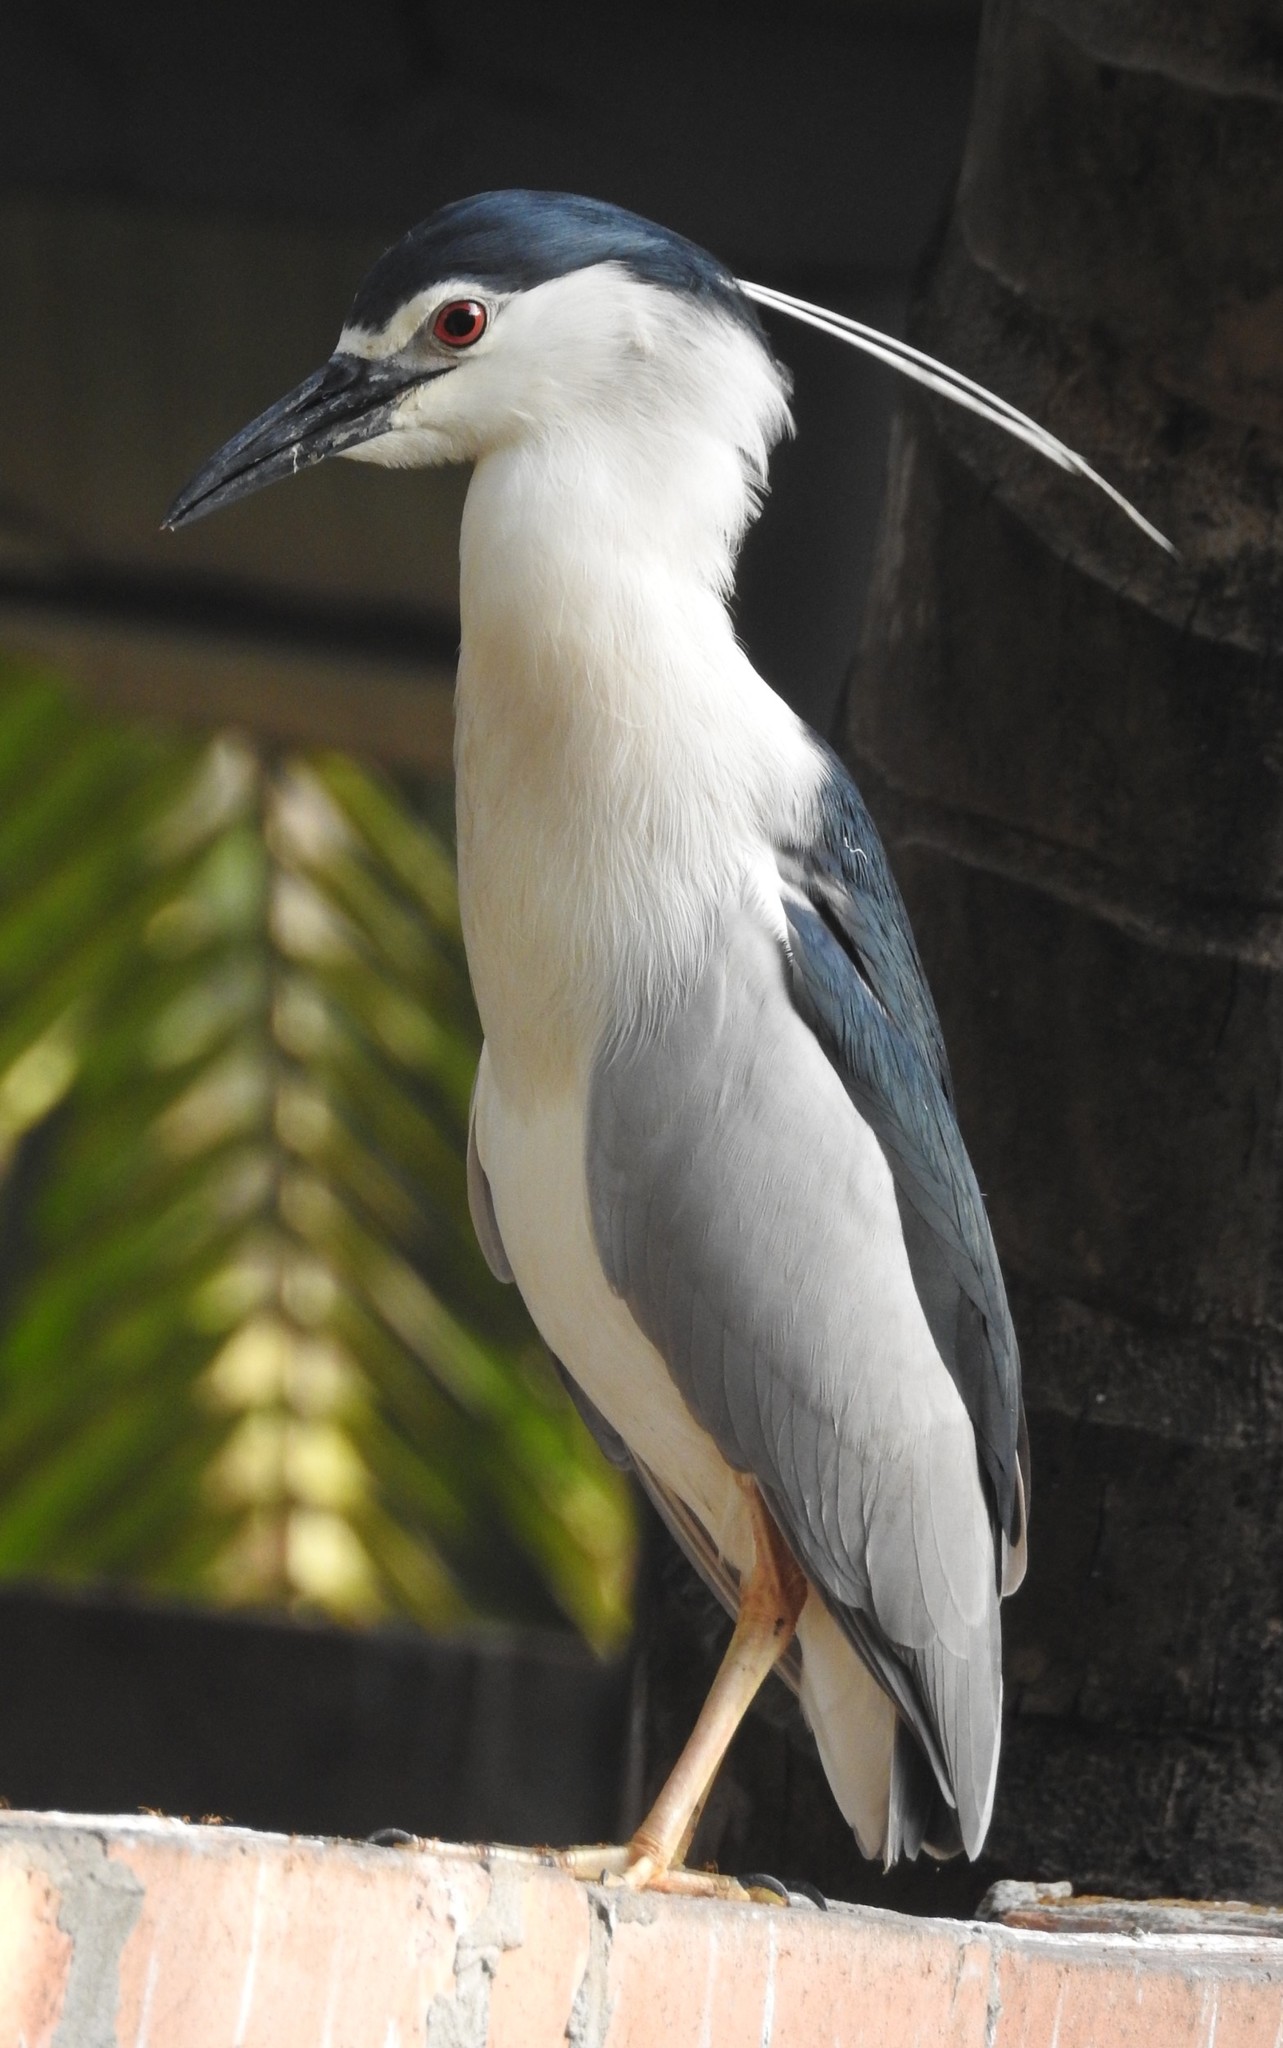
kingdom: Animalia
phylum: Chordata
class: Aves
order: Pelecaniformes
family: Ardeidae
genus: Nycticorax
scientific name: Nycticorax nycticorax
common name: Black-crowned night heron
